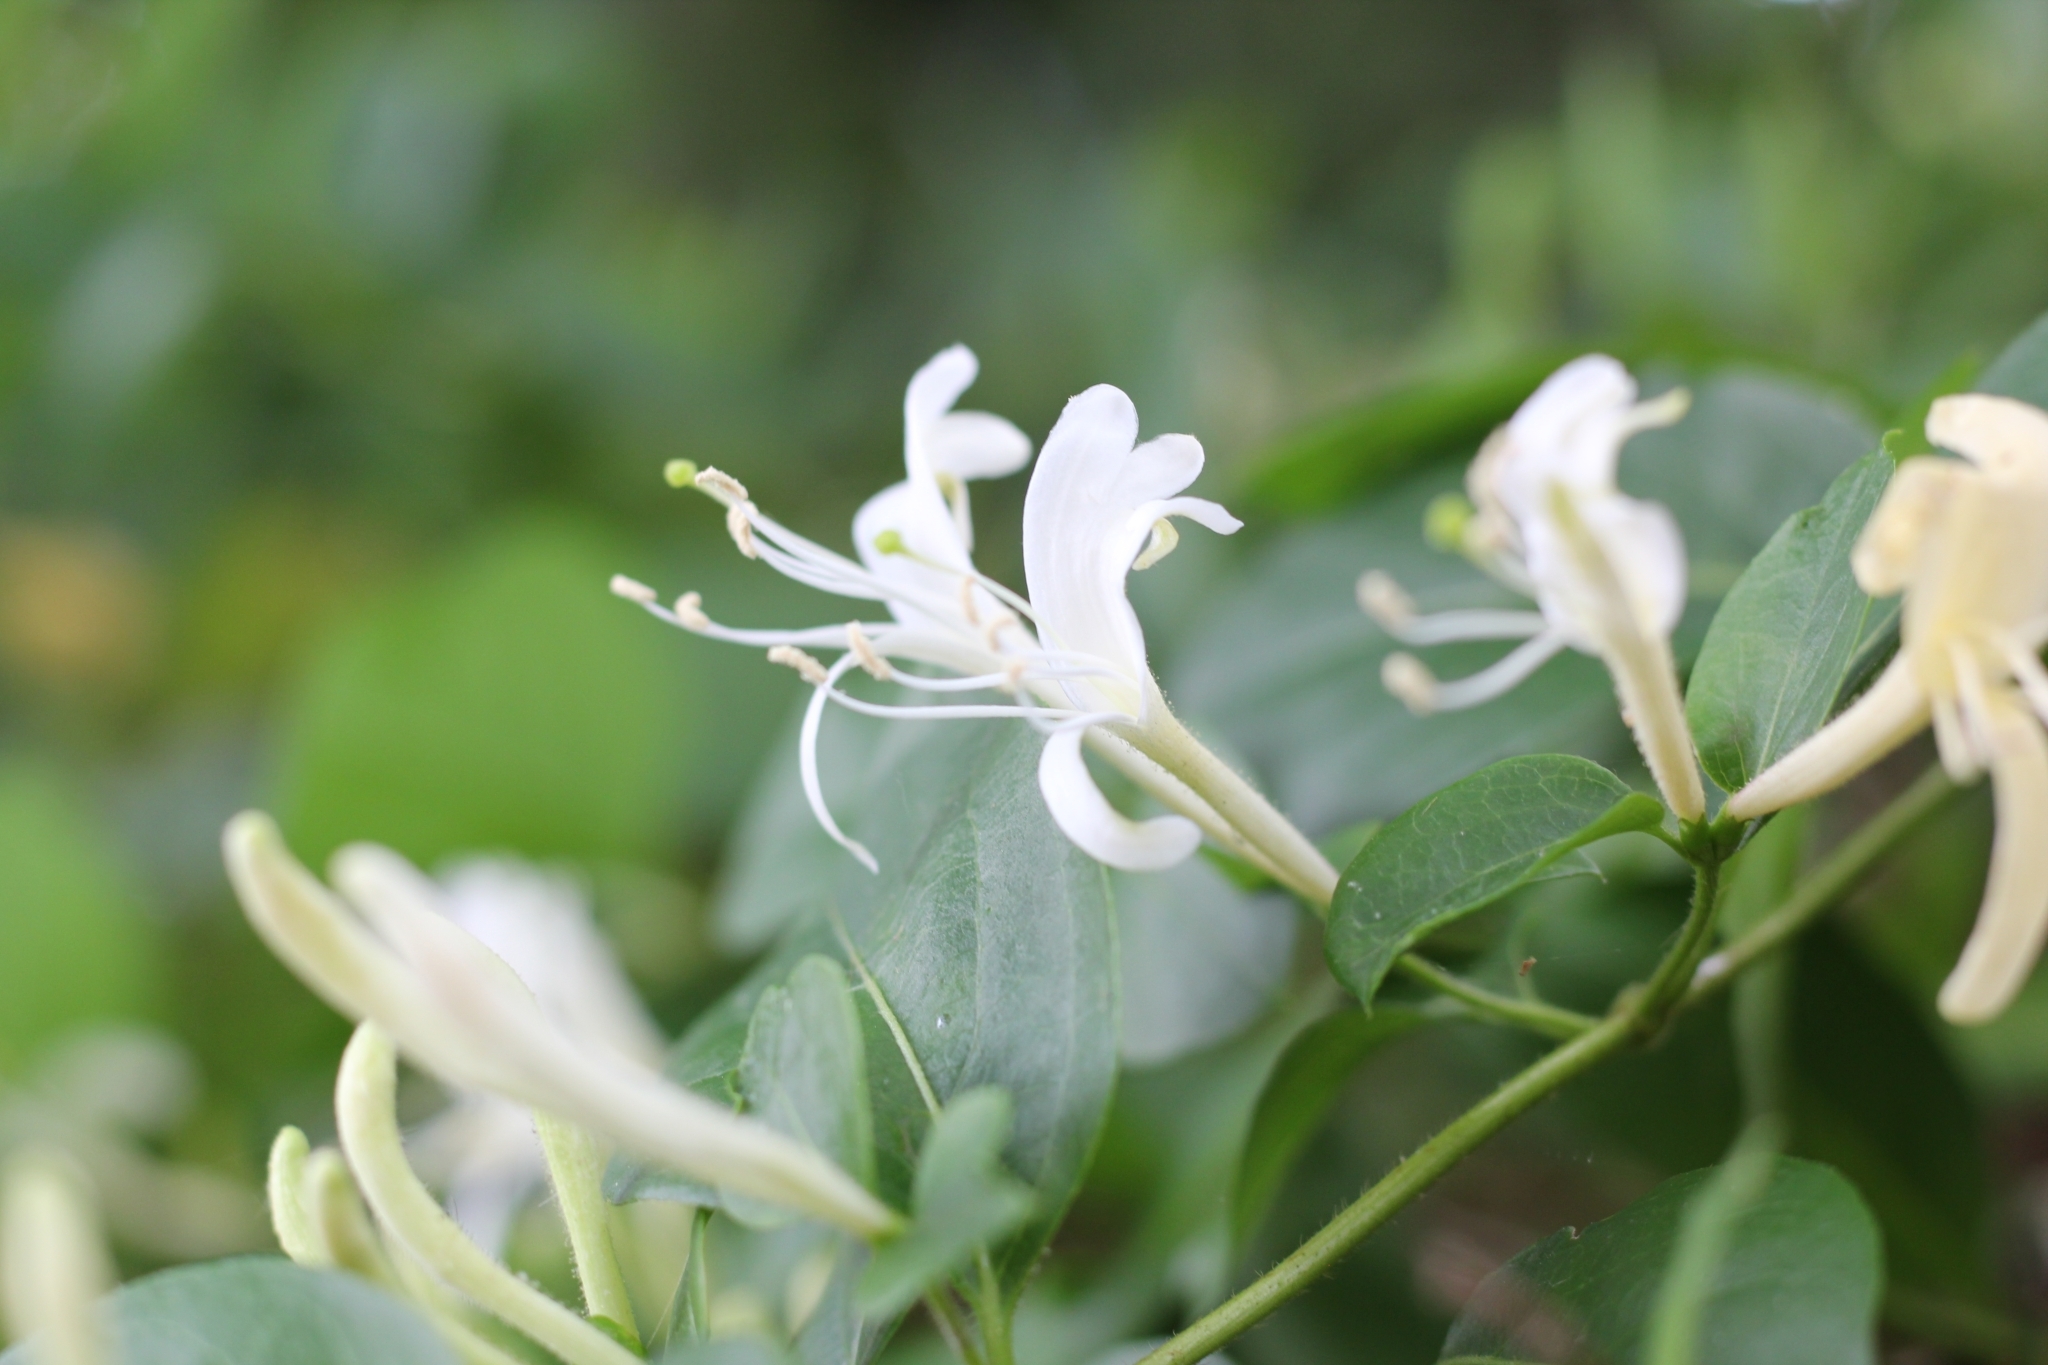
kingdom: Plantae
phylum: Tracheophyta
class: Magnoliopsida
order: Dipsacales
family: Caprifoliaceae
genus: Lonicera
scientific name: Lonicera japonica
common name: Japanese honeysuckle
